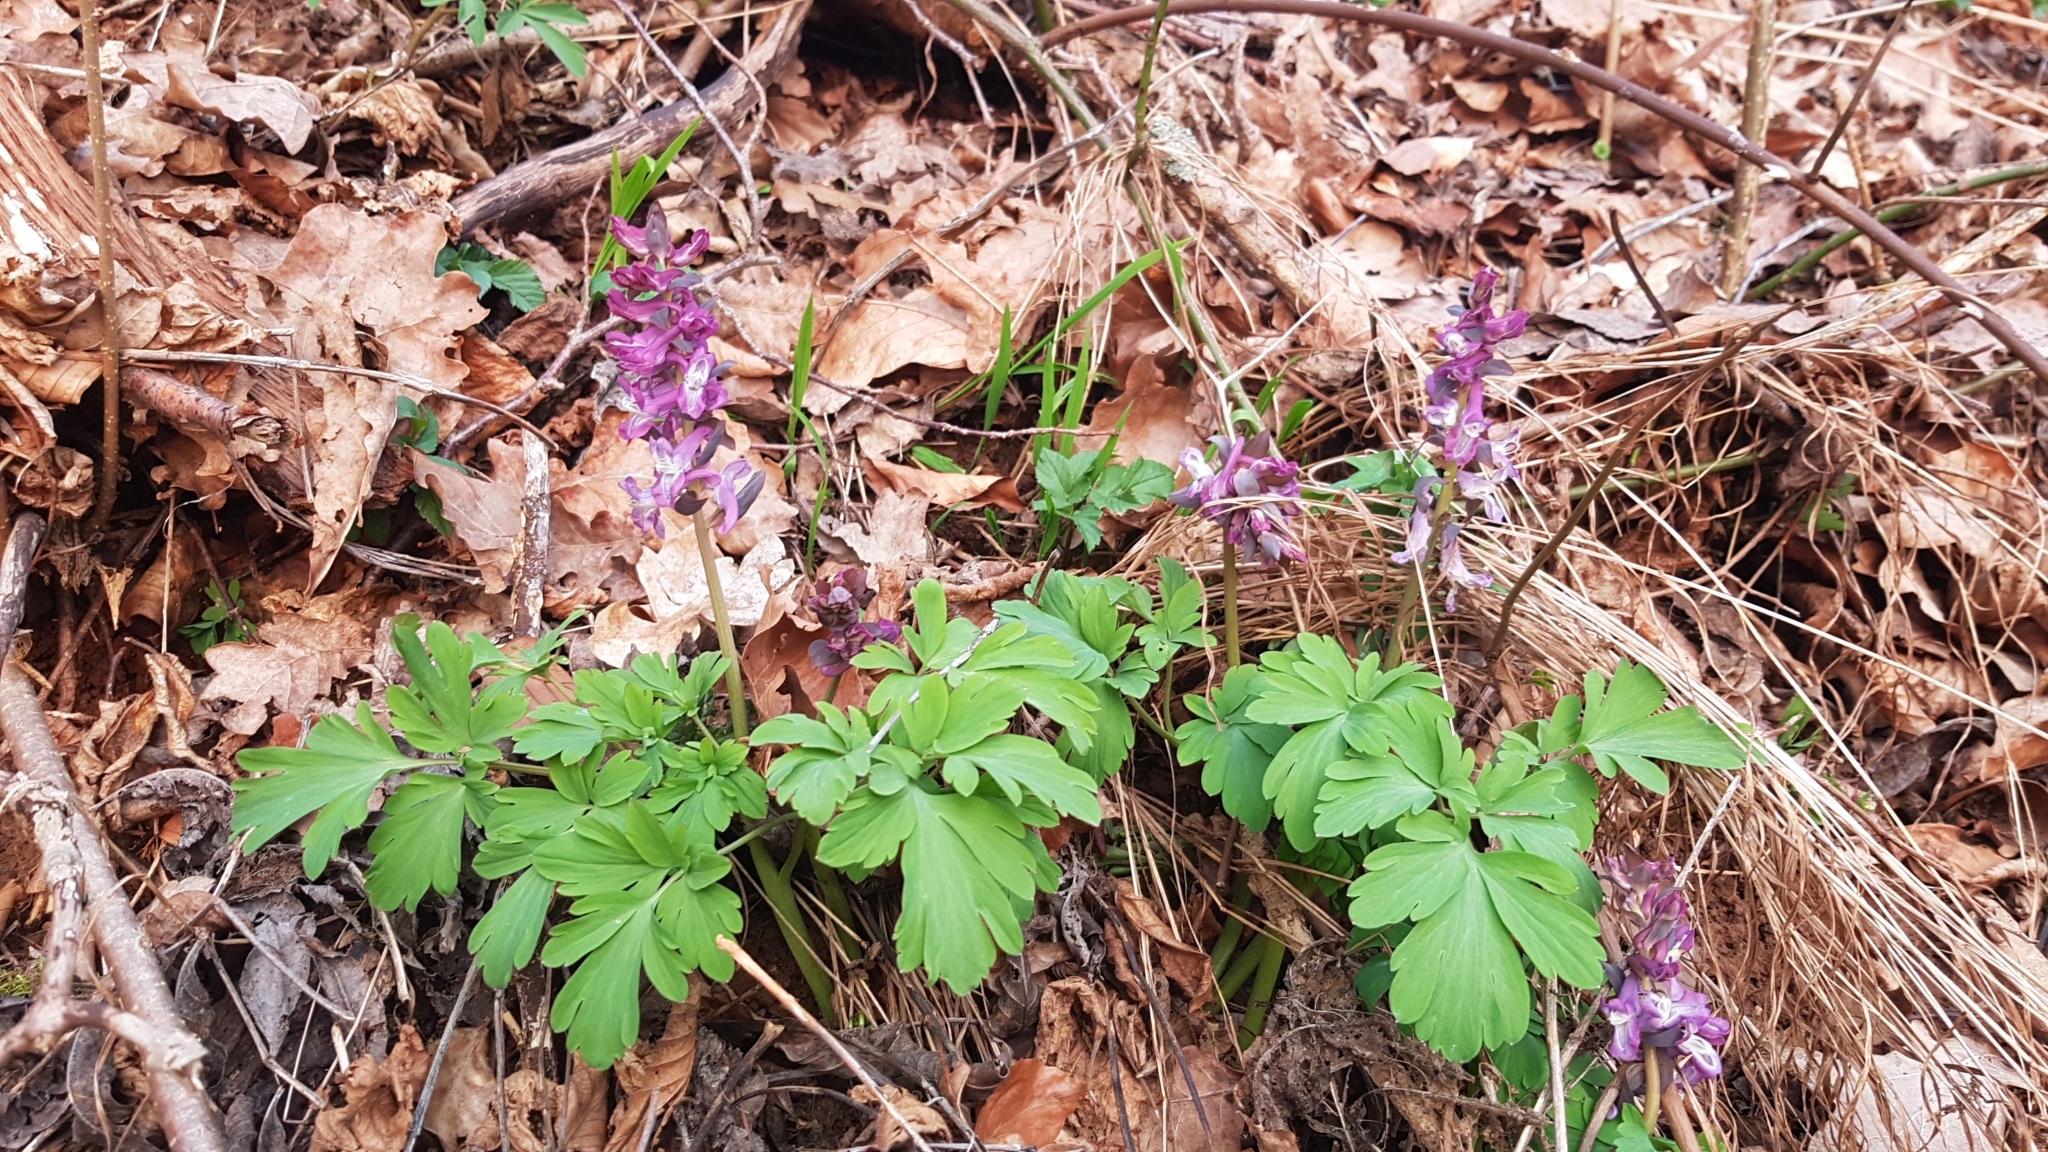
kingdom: Plantae
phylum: Tracheophyta
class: Magnoliopsida
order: Ranunculales
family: Papaveraceae
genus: Corydalis
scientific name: Corydalis cava
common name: Hollowroot
